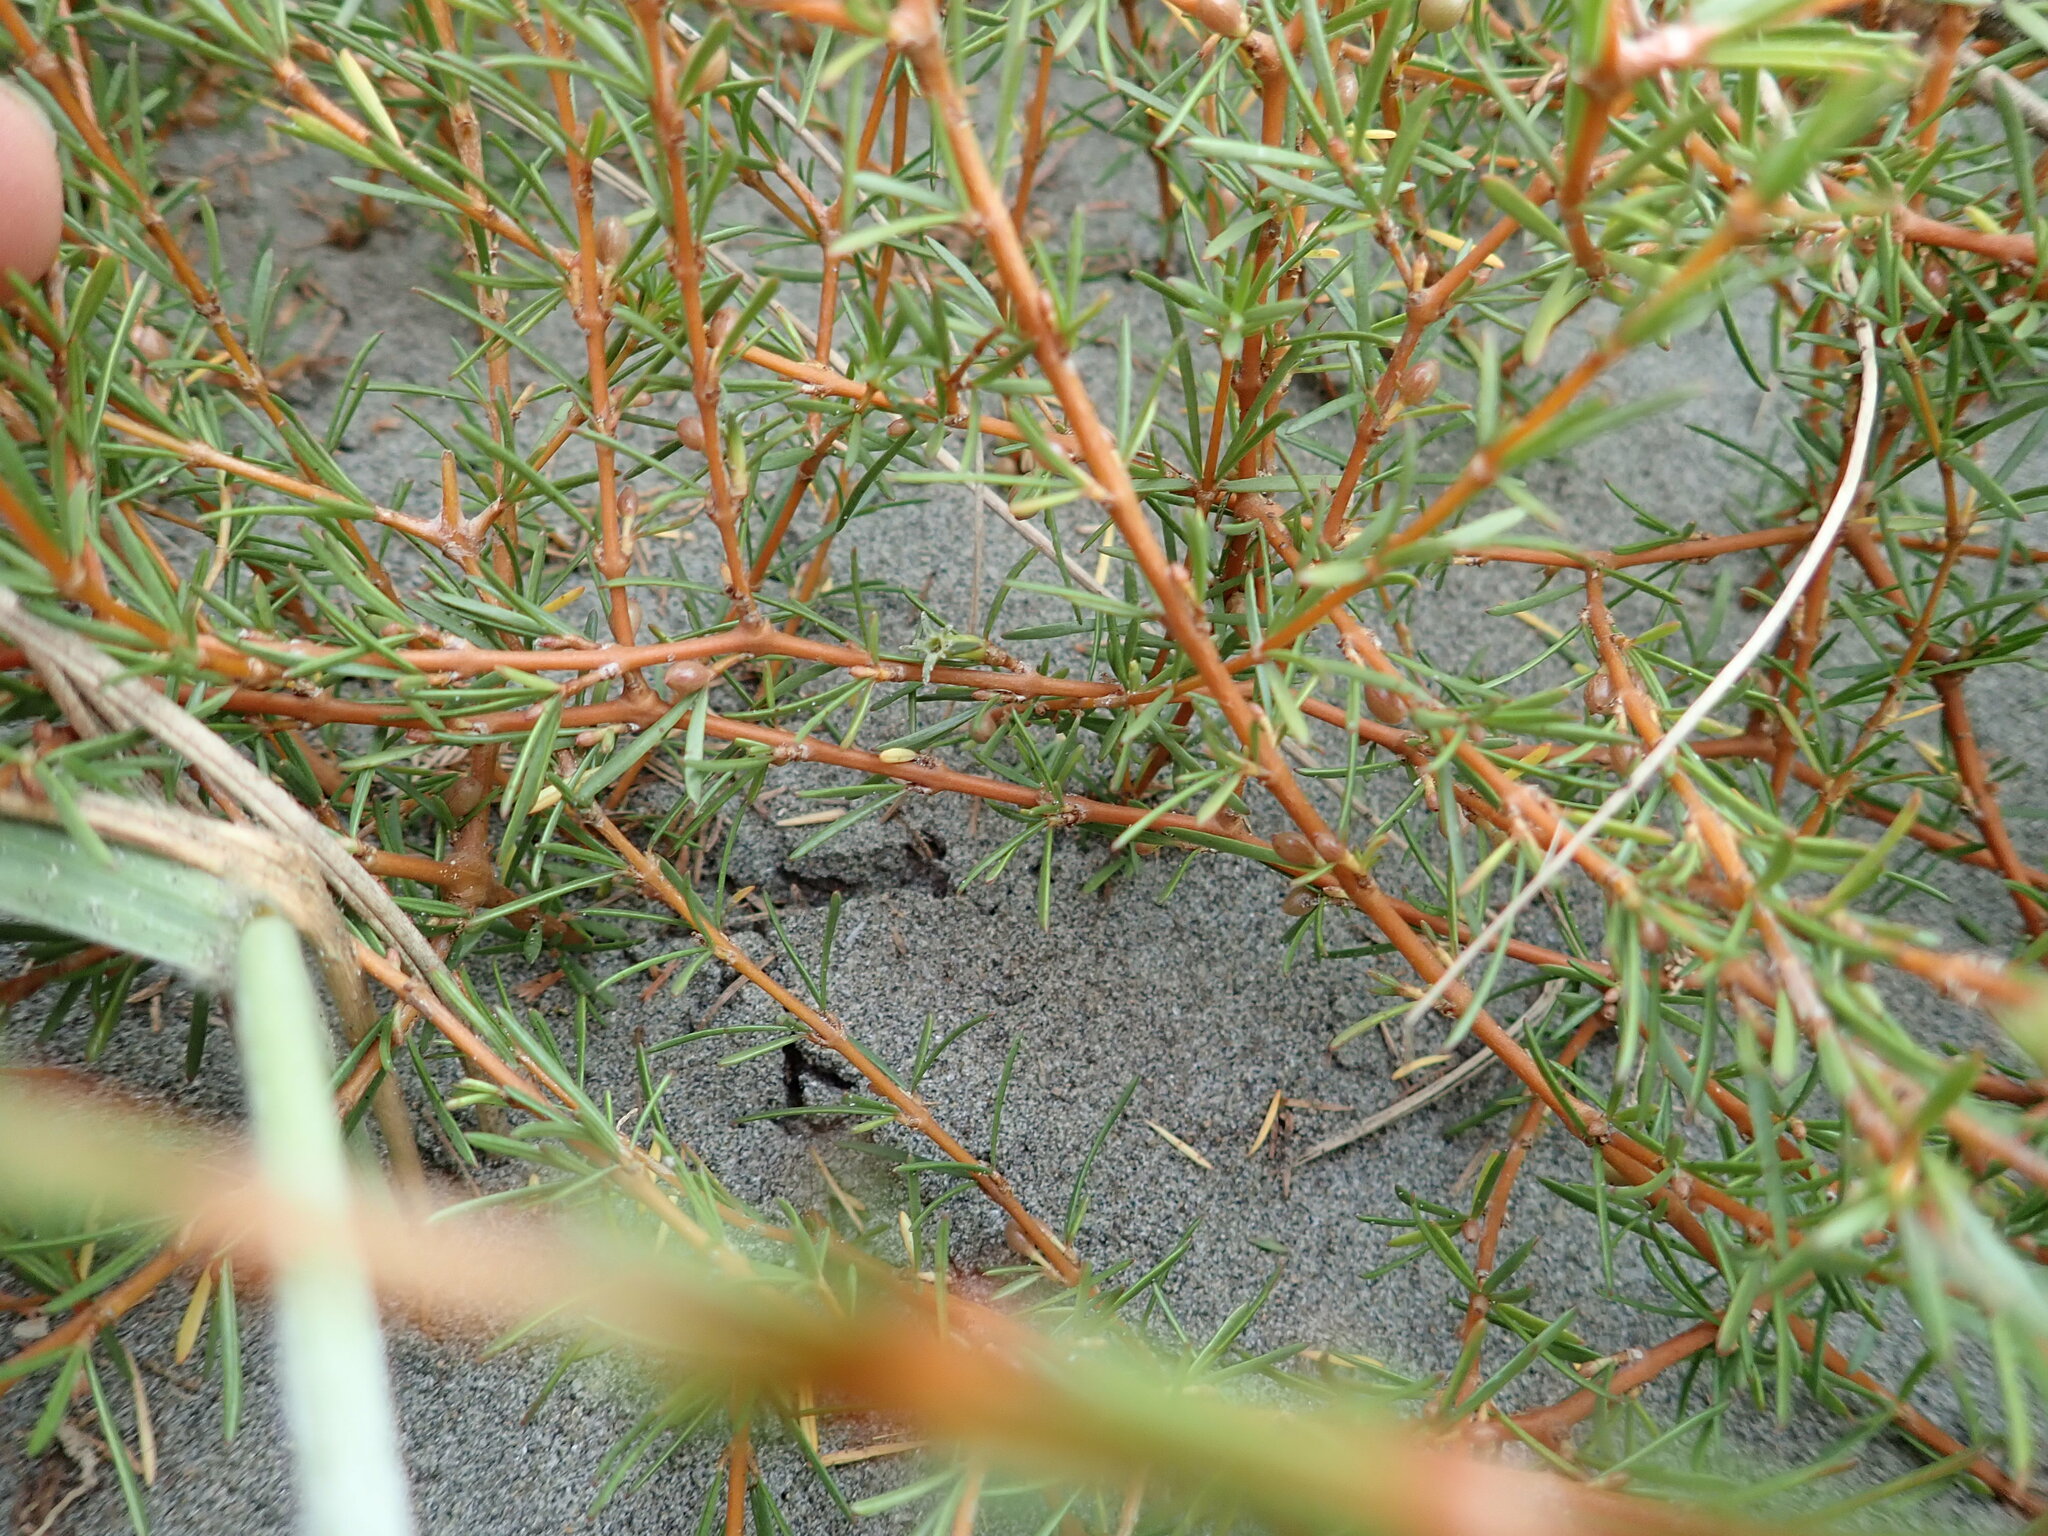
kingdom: Plantae
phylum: Tracheophyta
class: Magnoliopsida
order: Gentianales
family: Rubiaceae
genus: Coprosma
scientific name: Coprosma acerosa
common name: Sand coprosma
